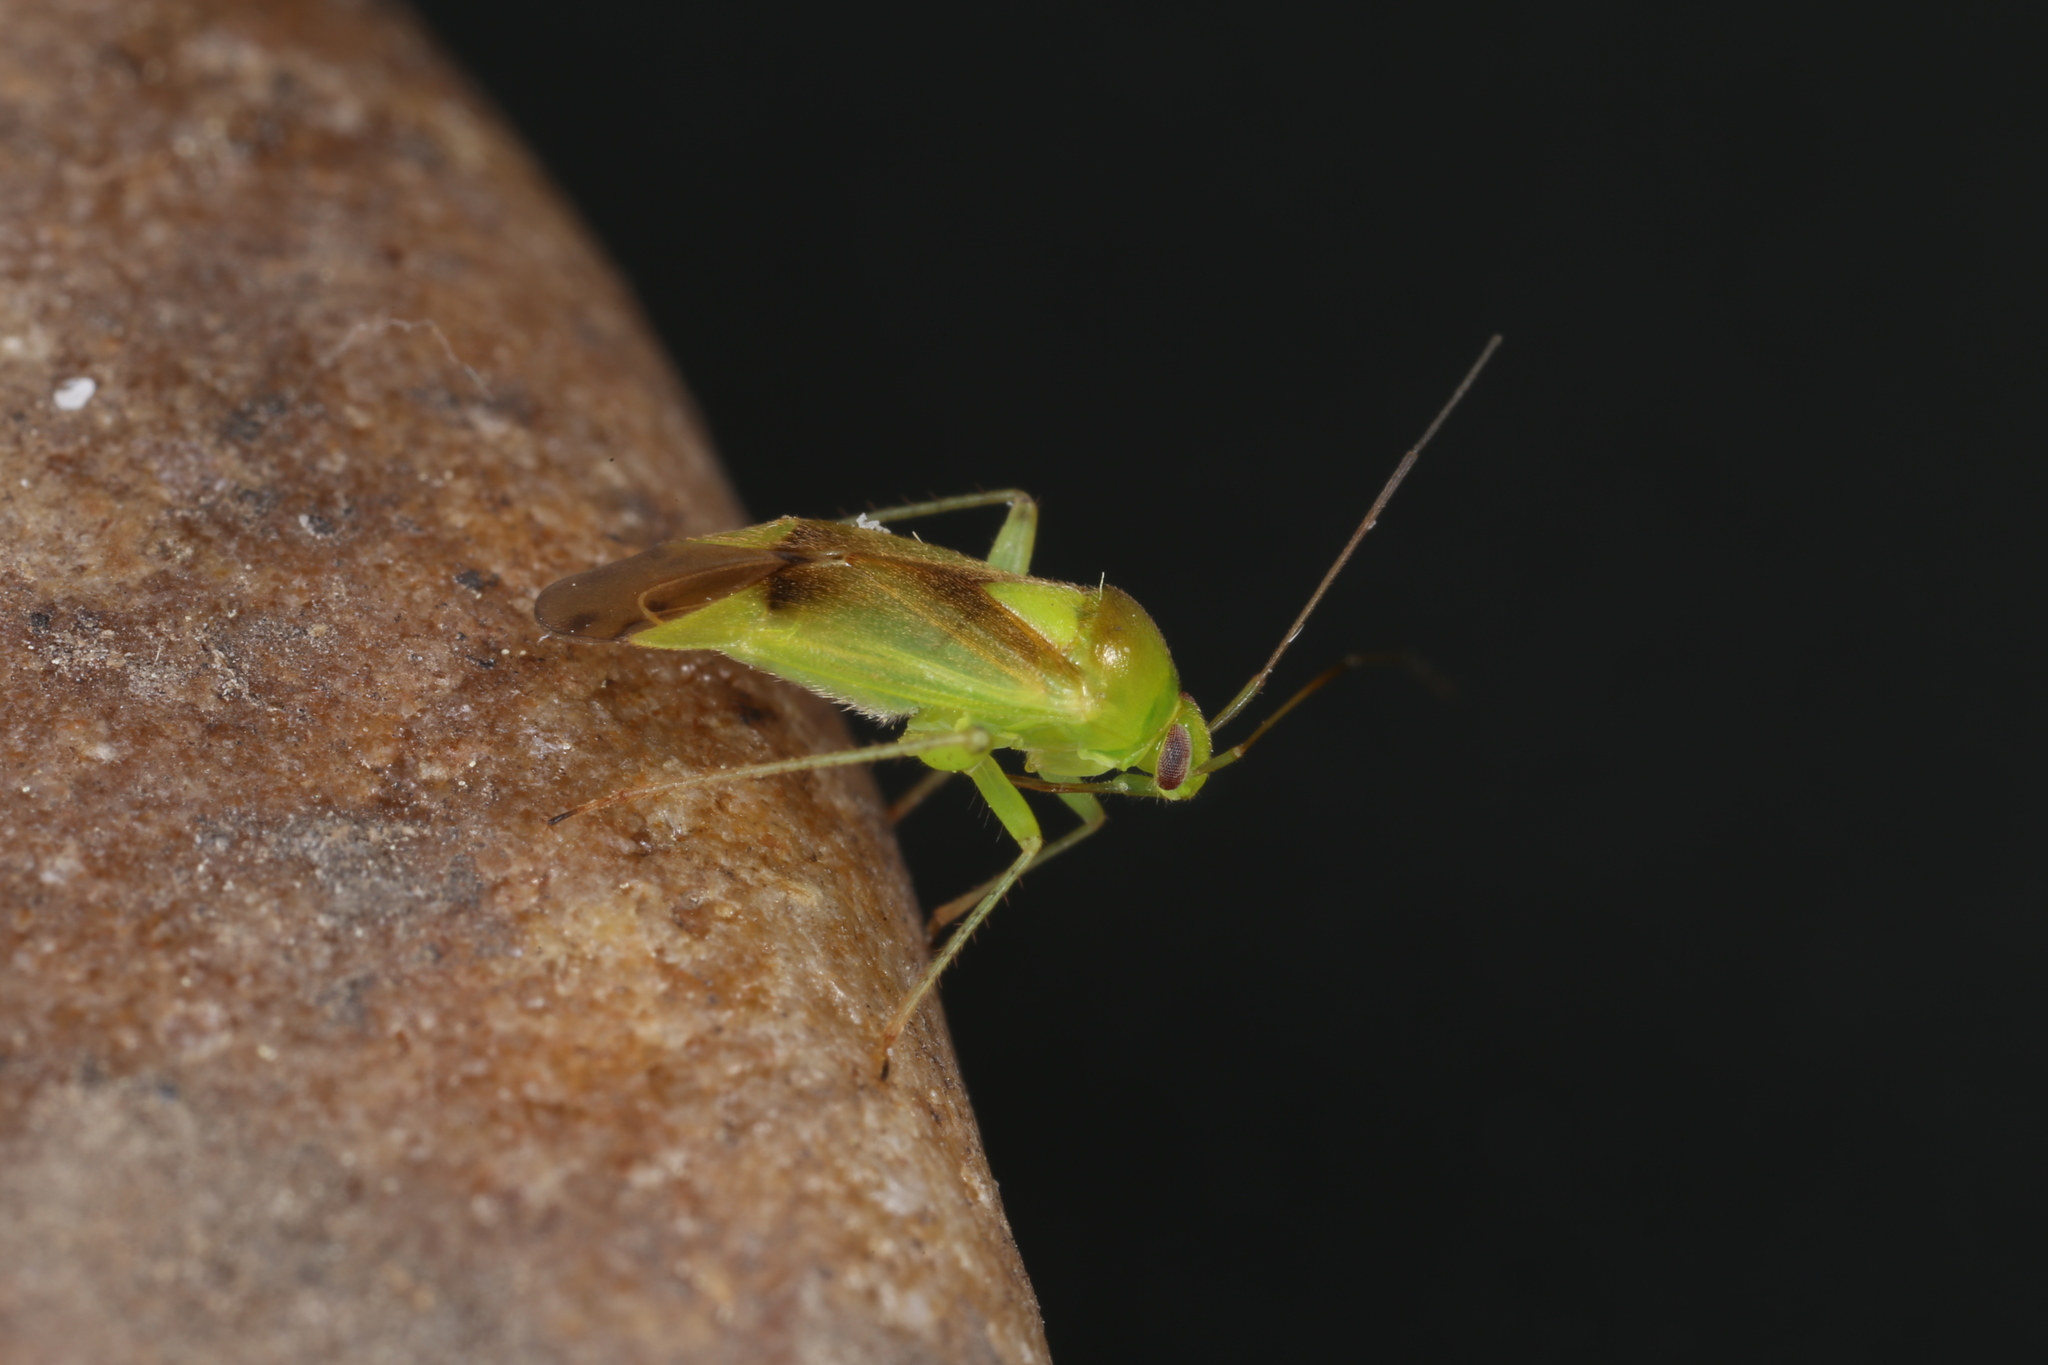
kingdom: Animalia
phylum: Arthropoda
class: Insecta
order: Hemiptera
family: Miridae
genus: Neolygus
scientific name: Neolygus viridis
